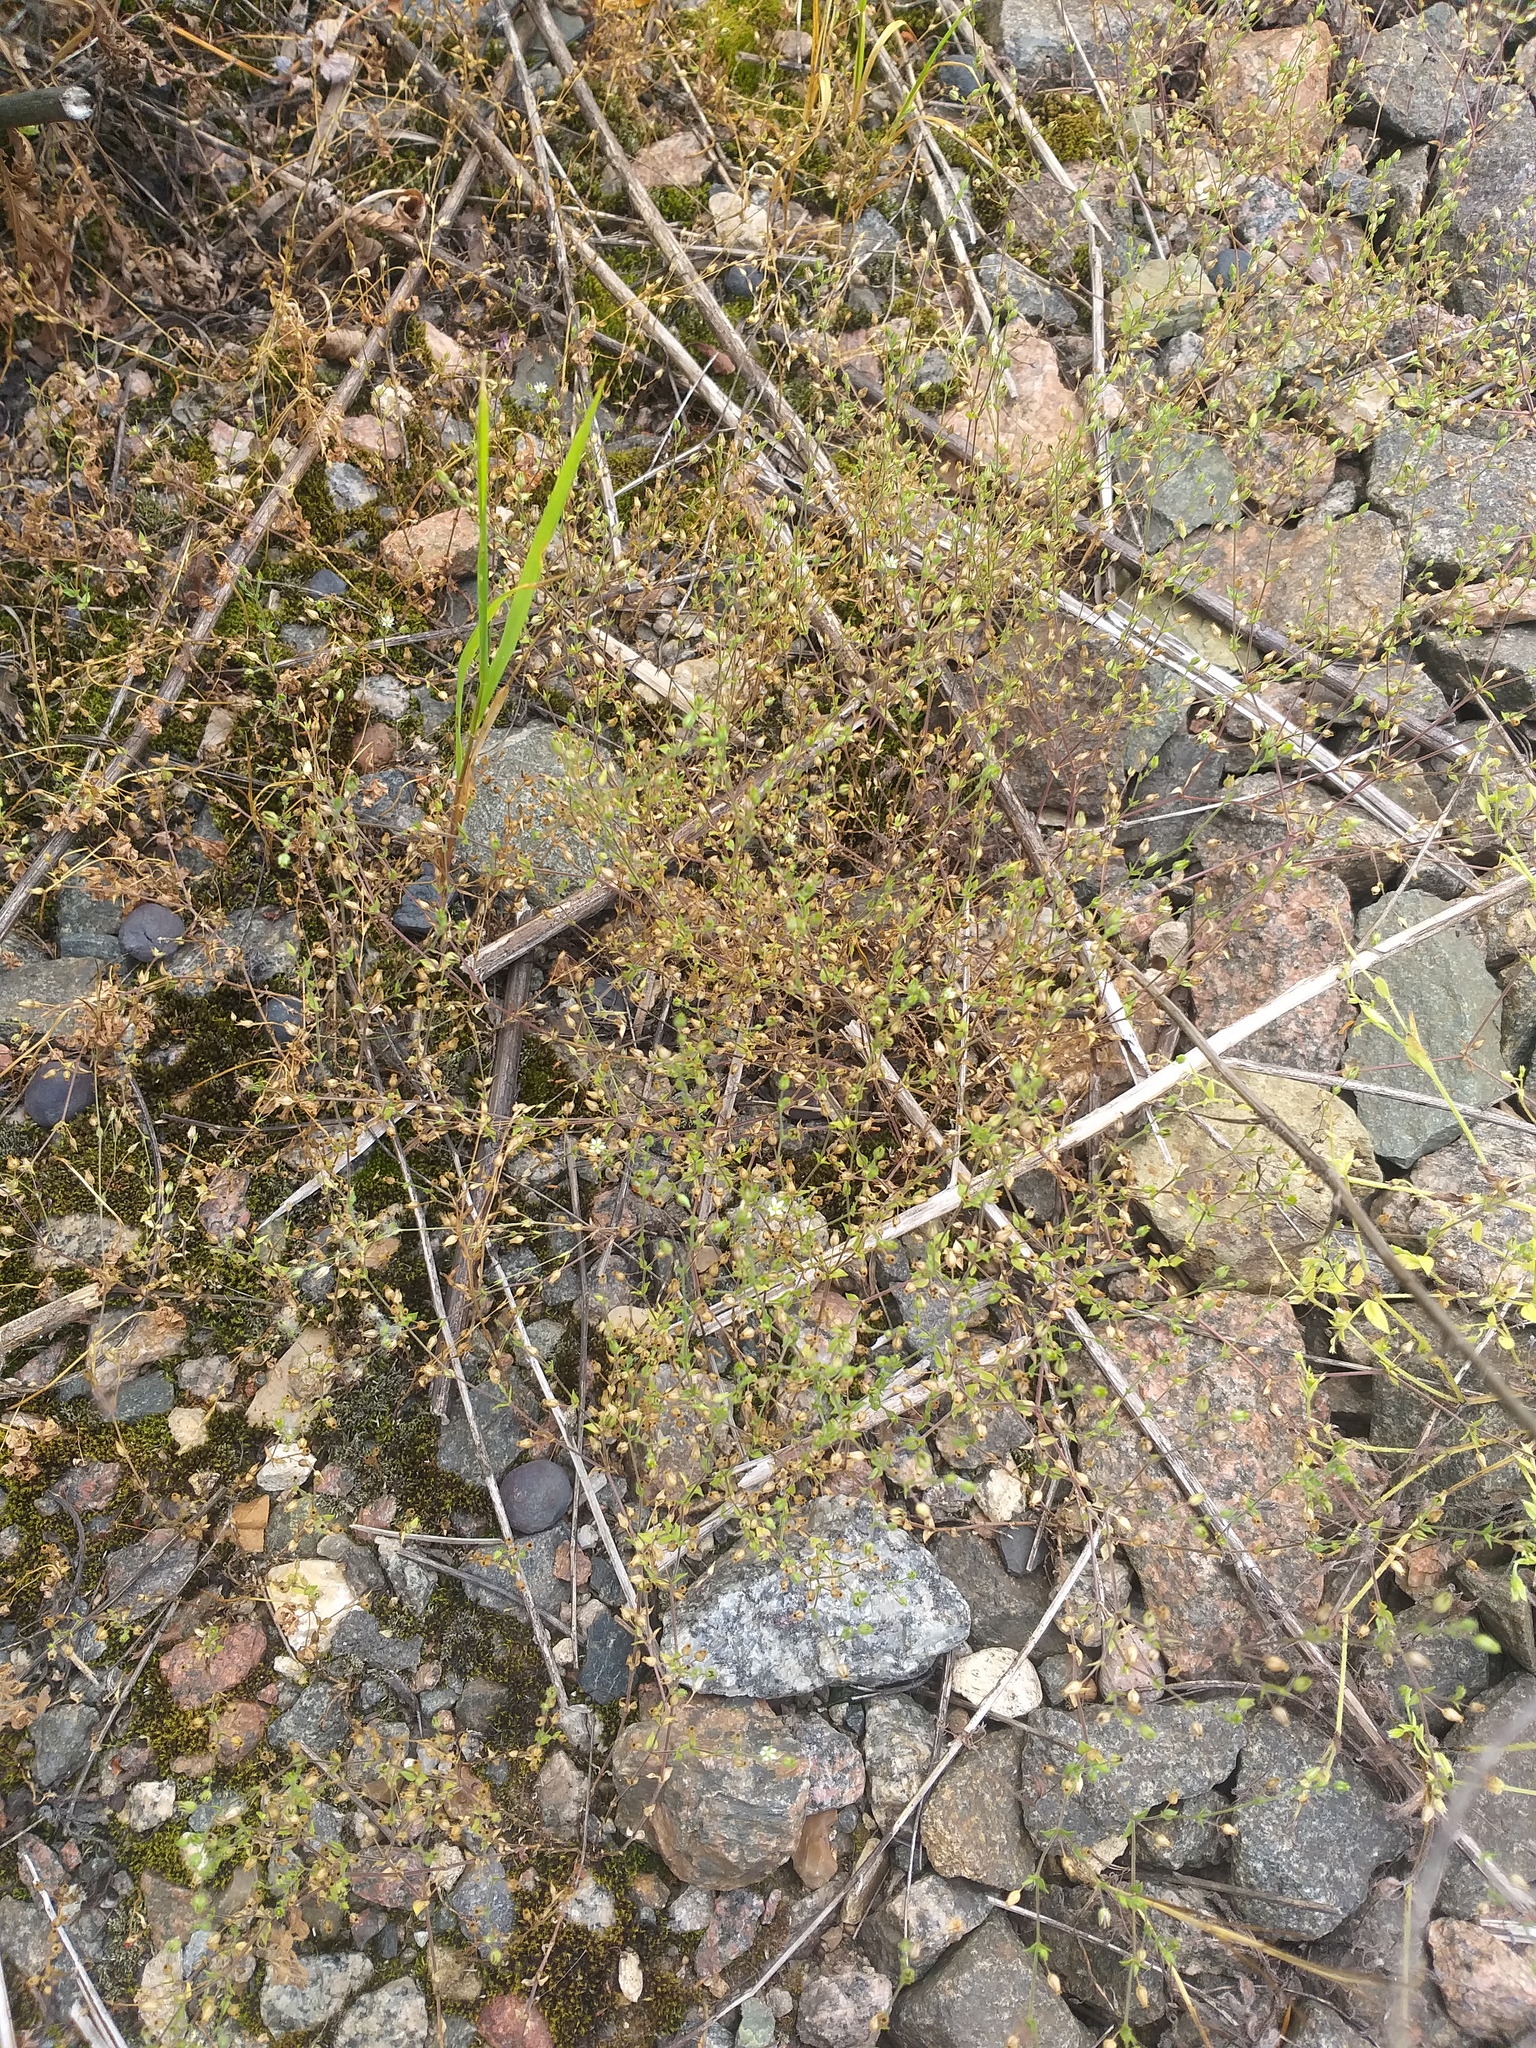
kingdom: Plantae
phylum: Tracheophyta
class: Magnoliopsida
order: Caryophyllales
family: Caryophyllaceae
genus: Arenaria
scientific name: Arenaria serpyllifolia
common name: Thyme-leaved sandwort
